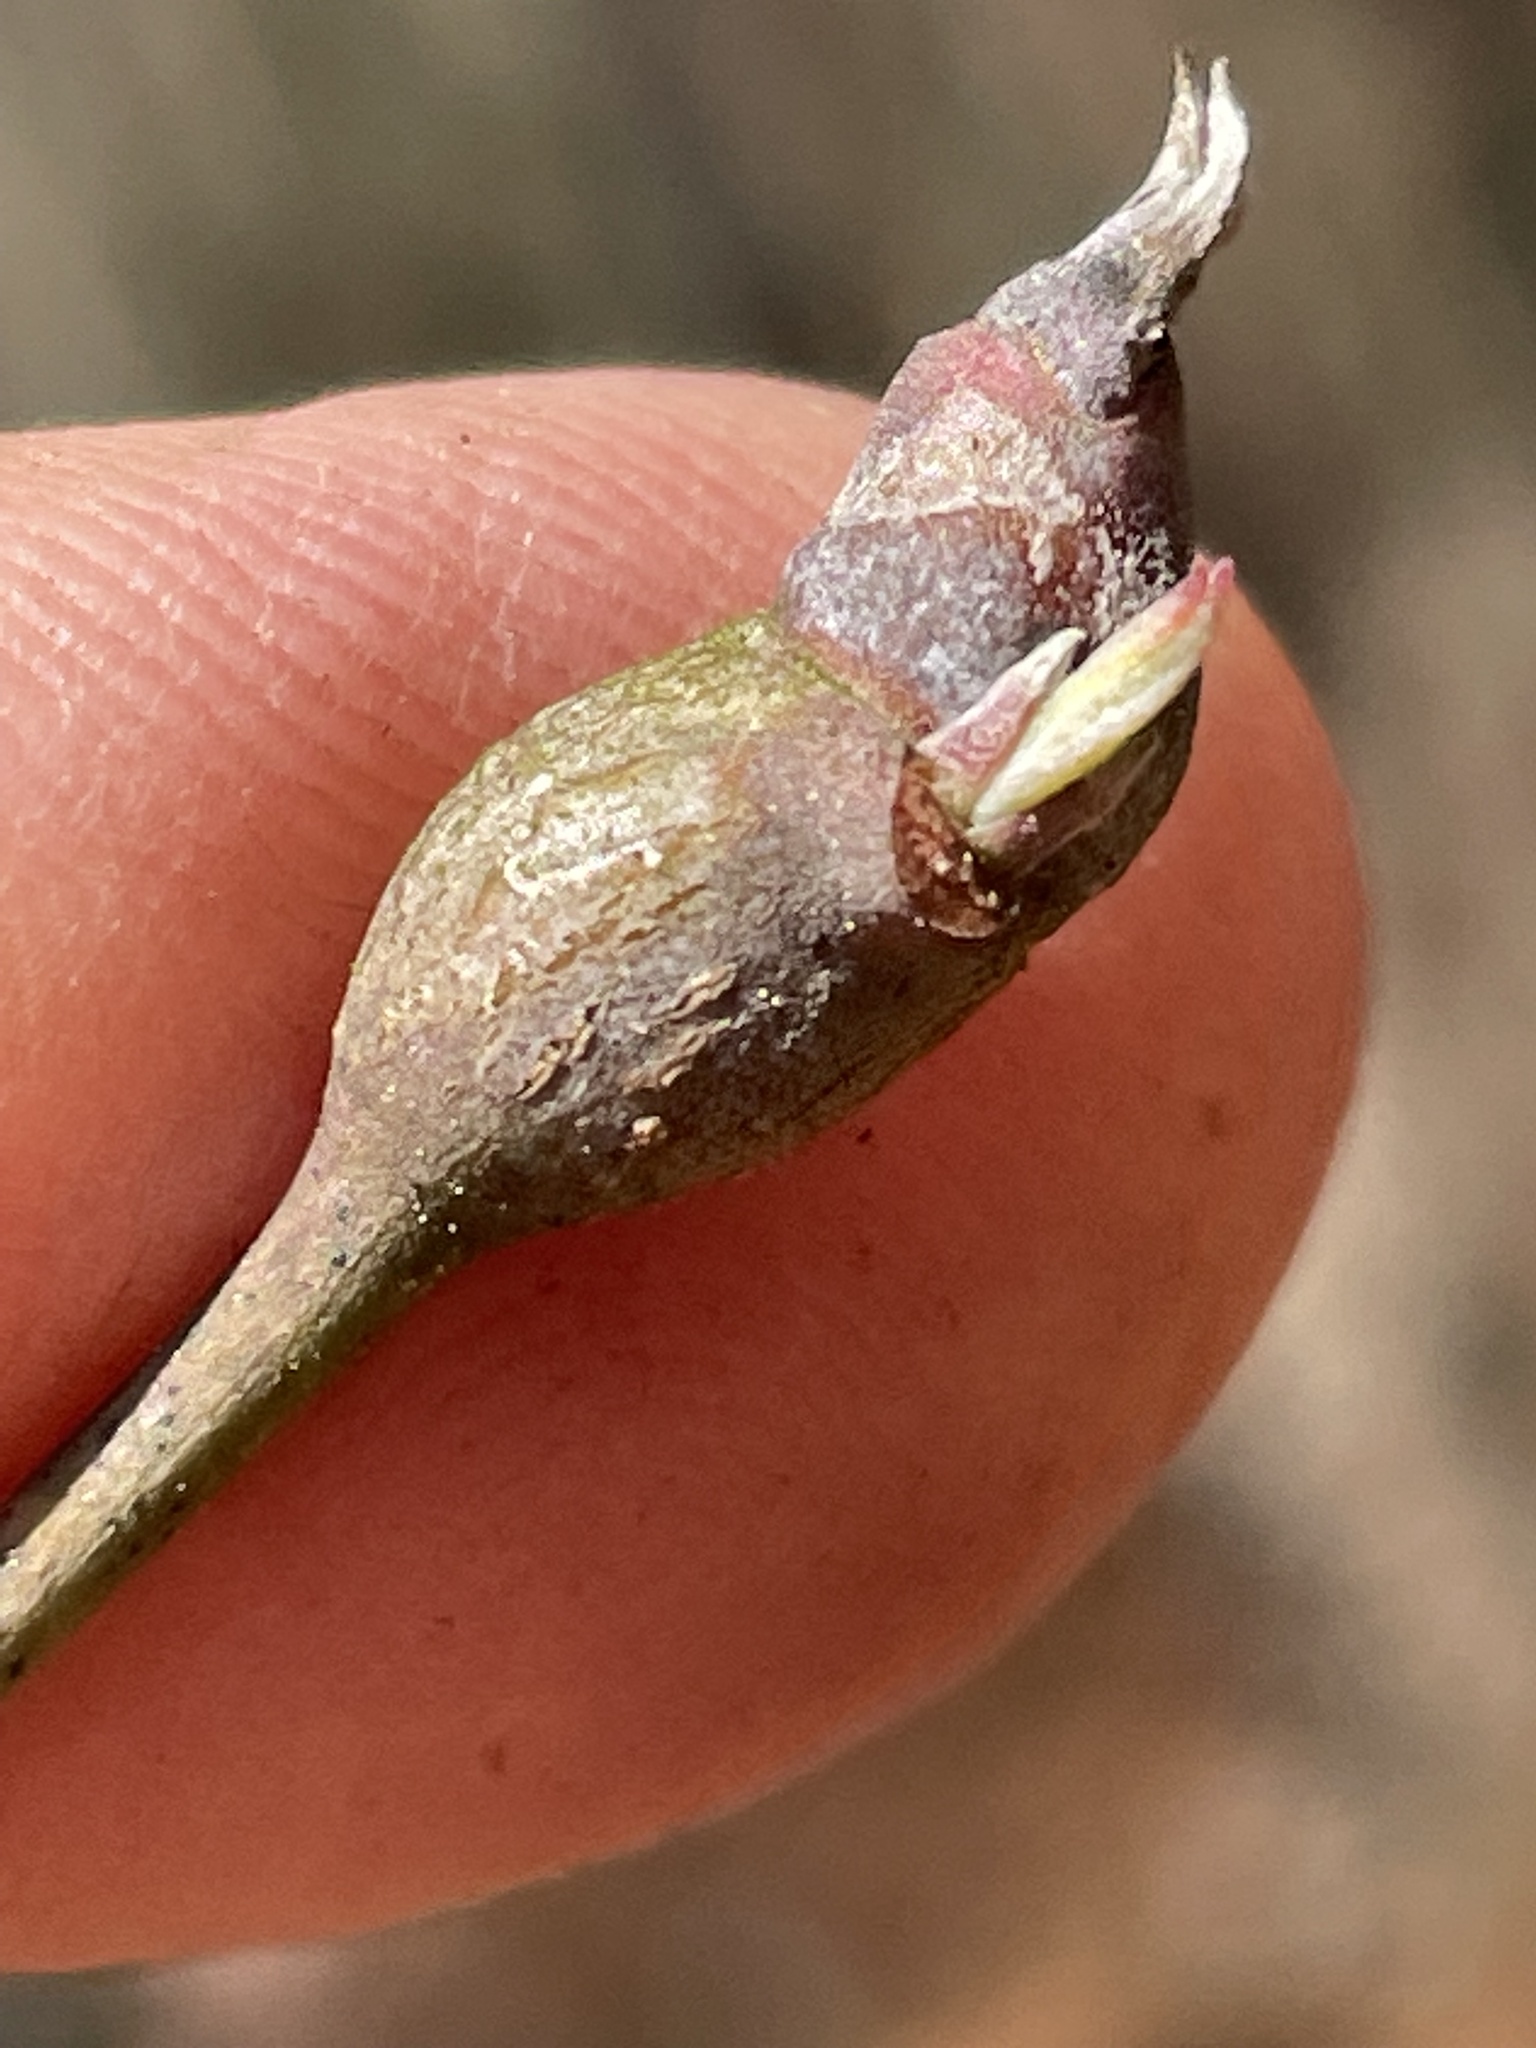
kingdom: Animalia
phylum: Arthropoda
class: Insecta
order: Diptera
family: Cecidomyiidae
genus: Resseliella
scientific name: Resseliella clavula
